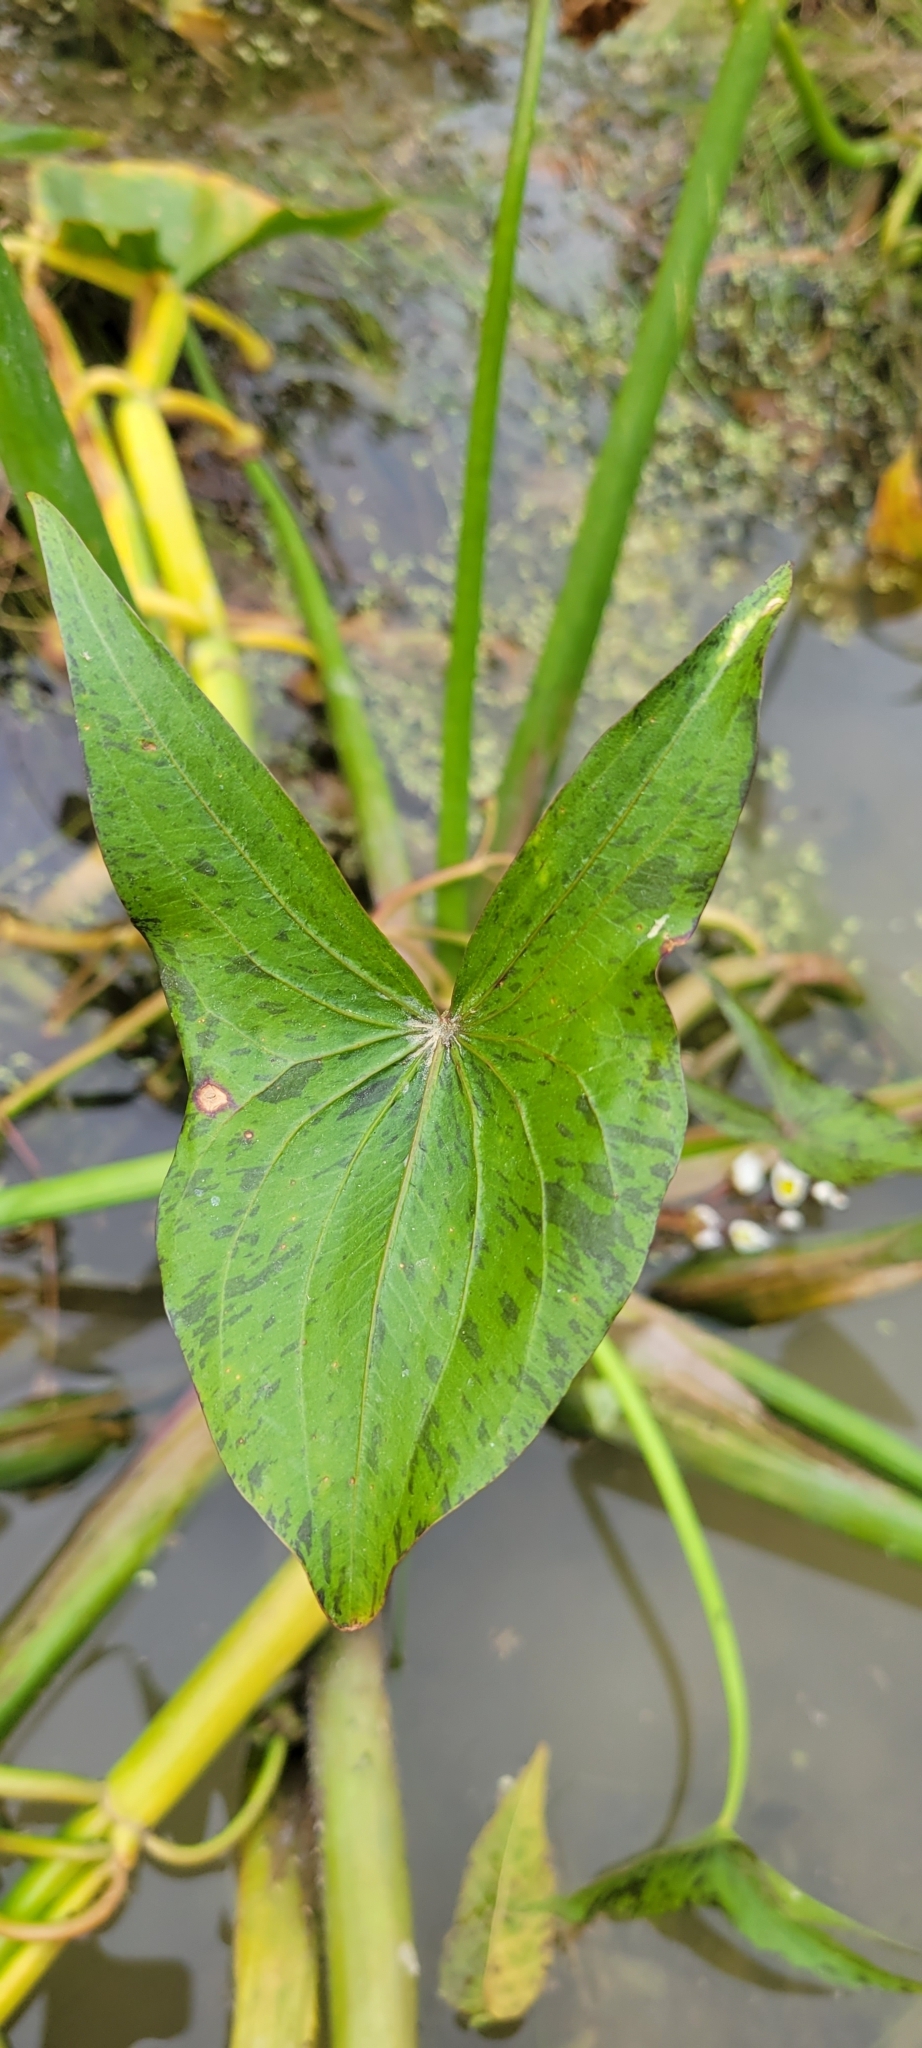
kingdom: Plantae
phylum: Tracheophyta
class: Liliopsida
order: Alismatales
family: Alismataceae
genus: Sagittaria
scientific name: Sagittaria calycina
